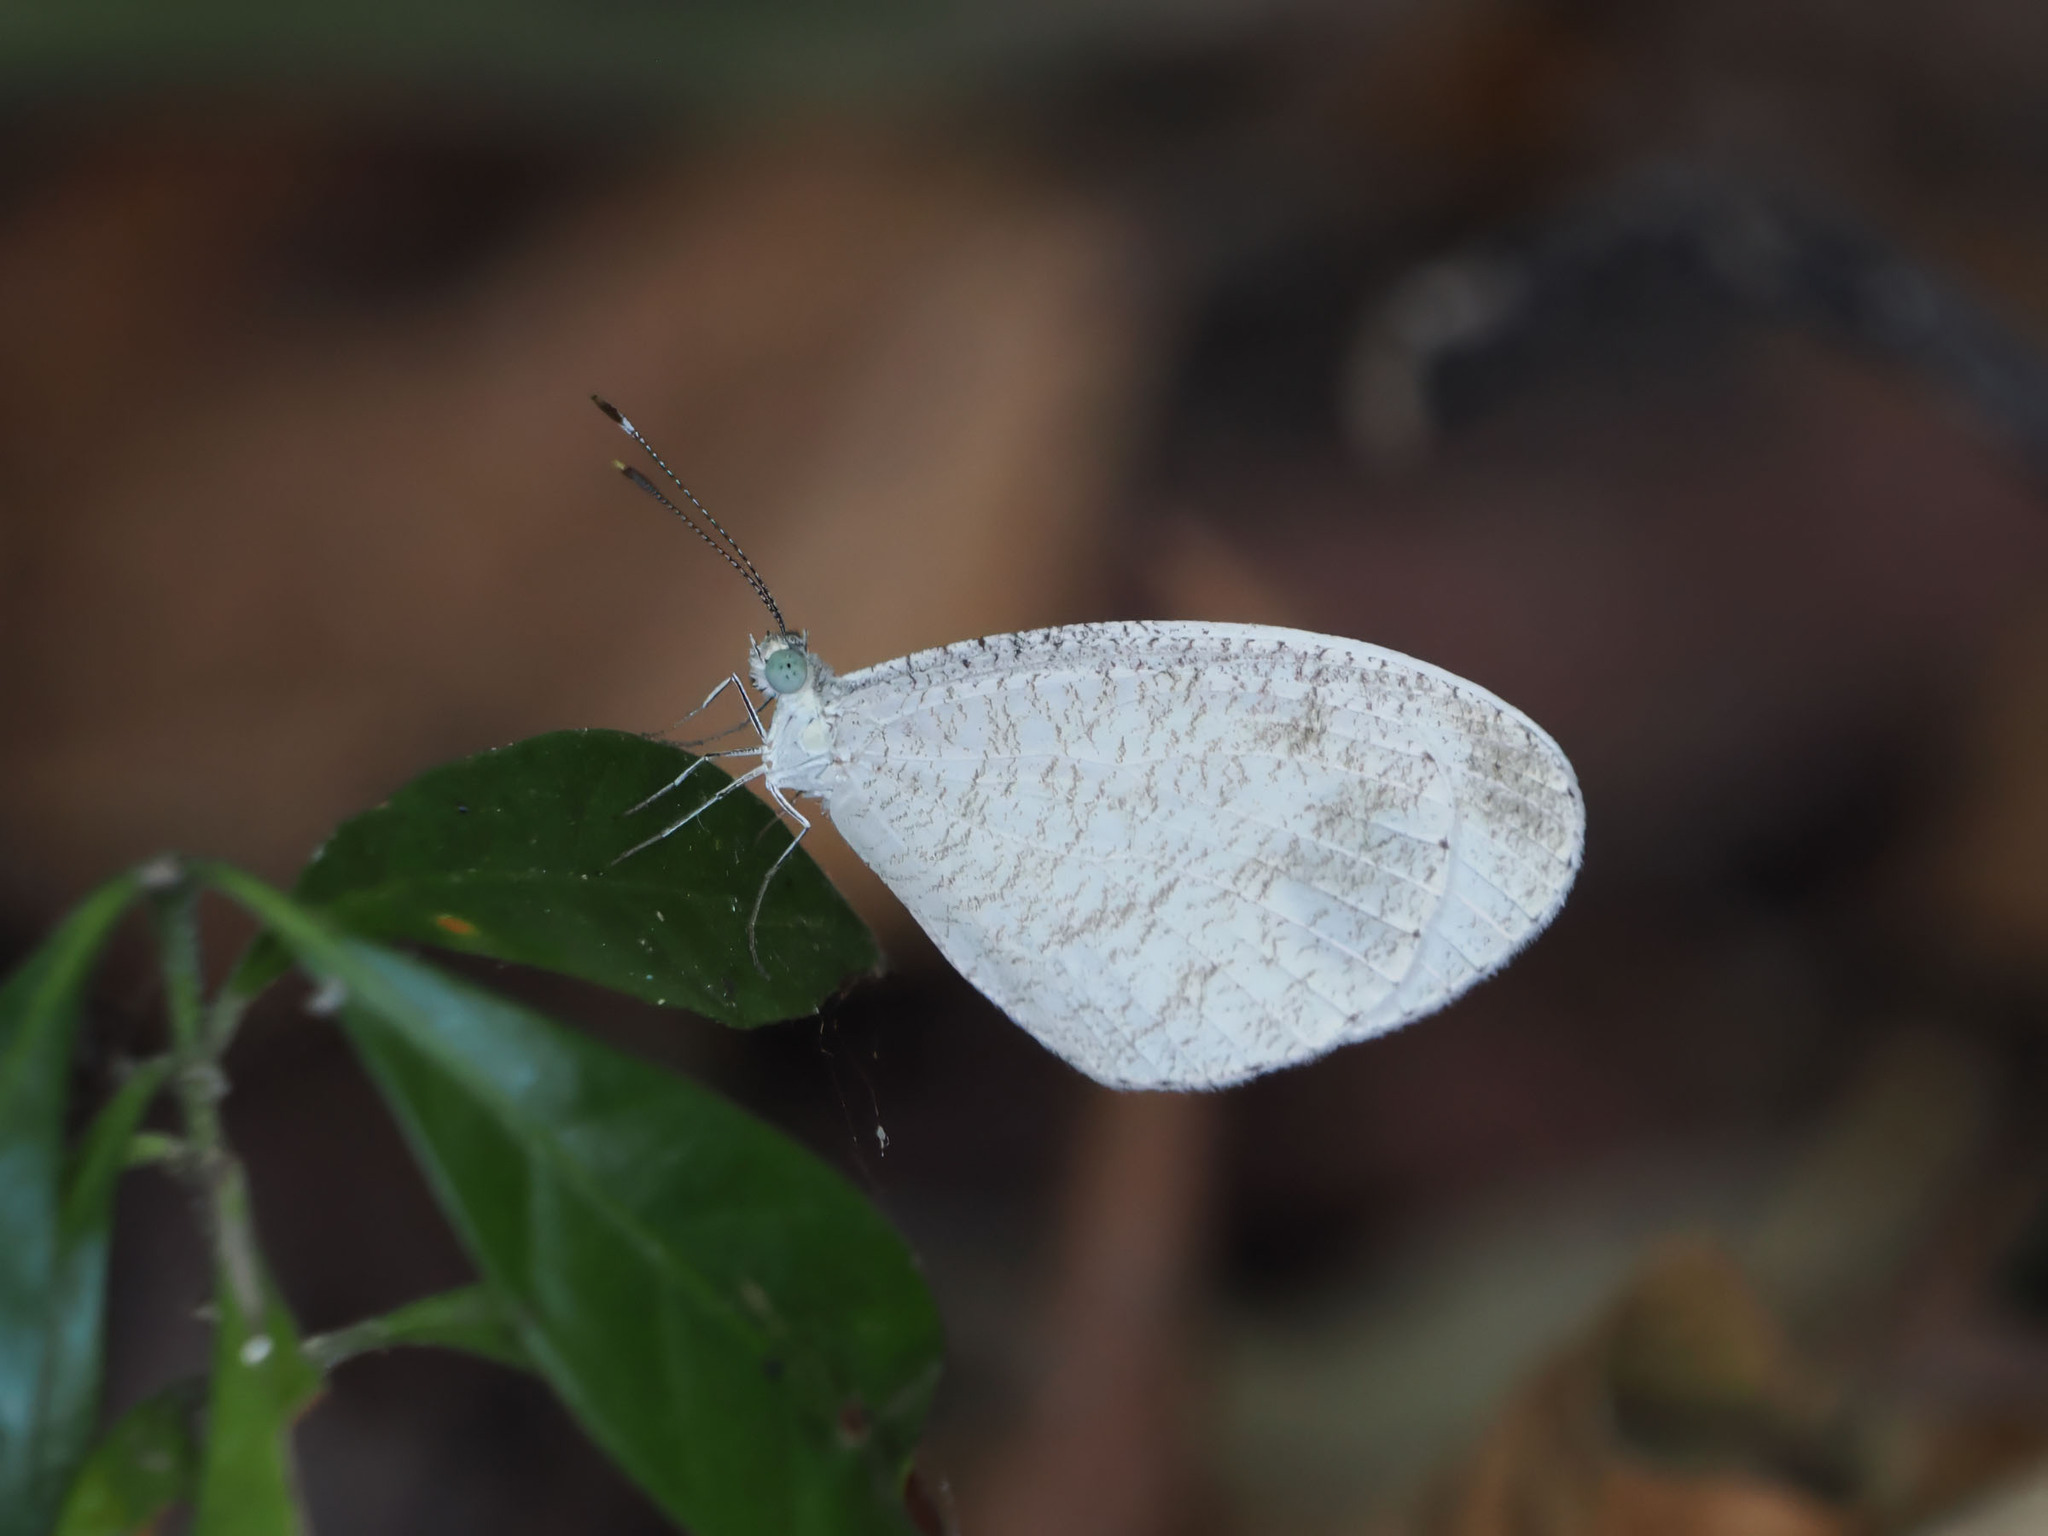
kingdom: Animalia
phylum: Arthropoda
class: Insecta
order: Lepidoptera
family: Pieridae
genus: Leptosia
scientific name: Leptosia nina
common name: Psyche
